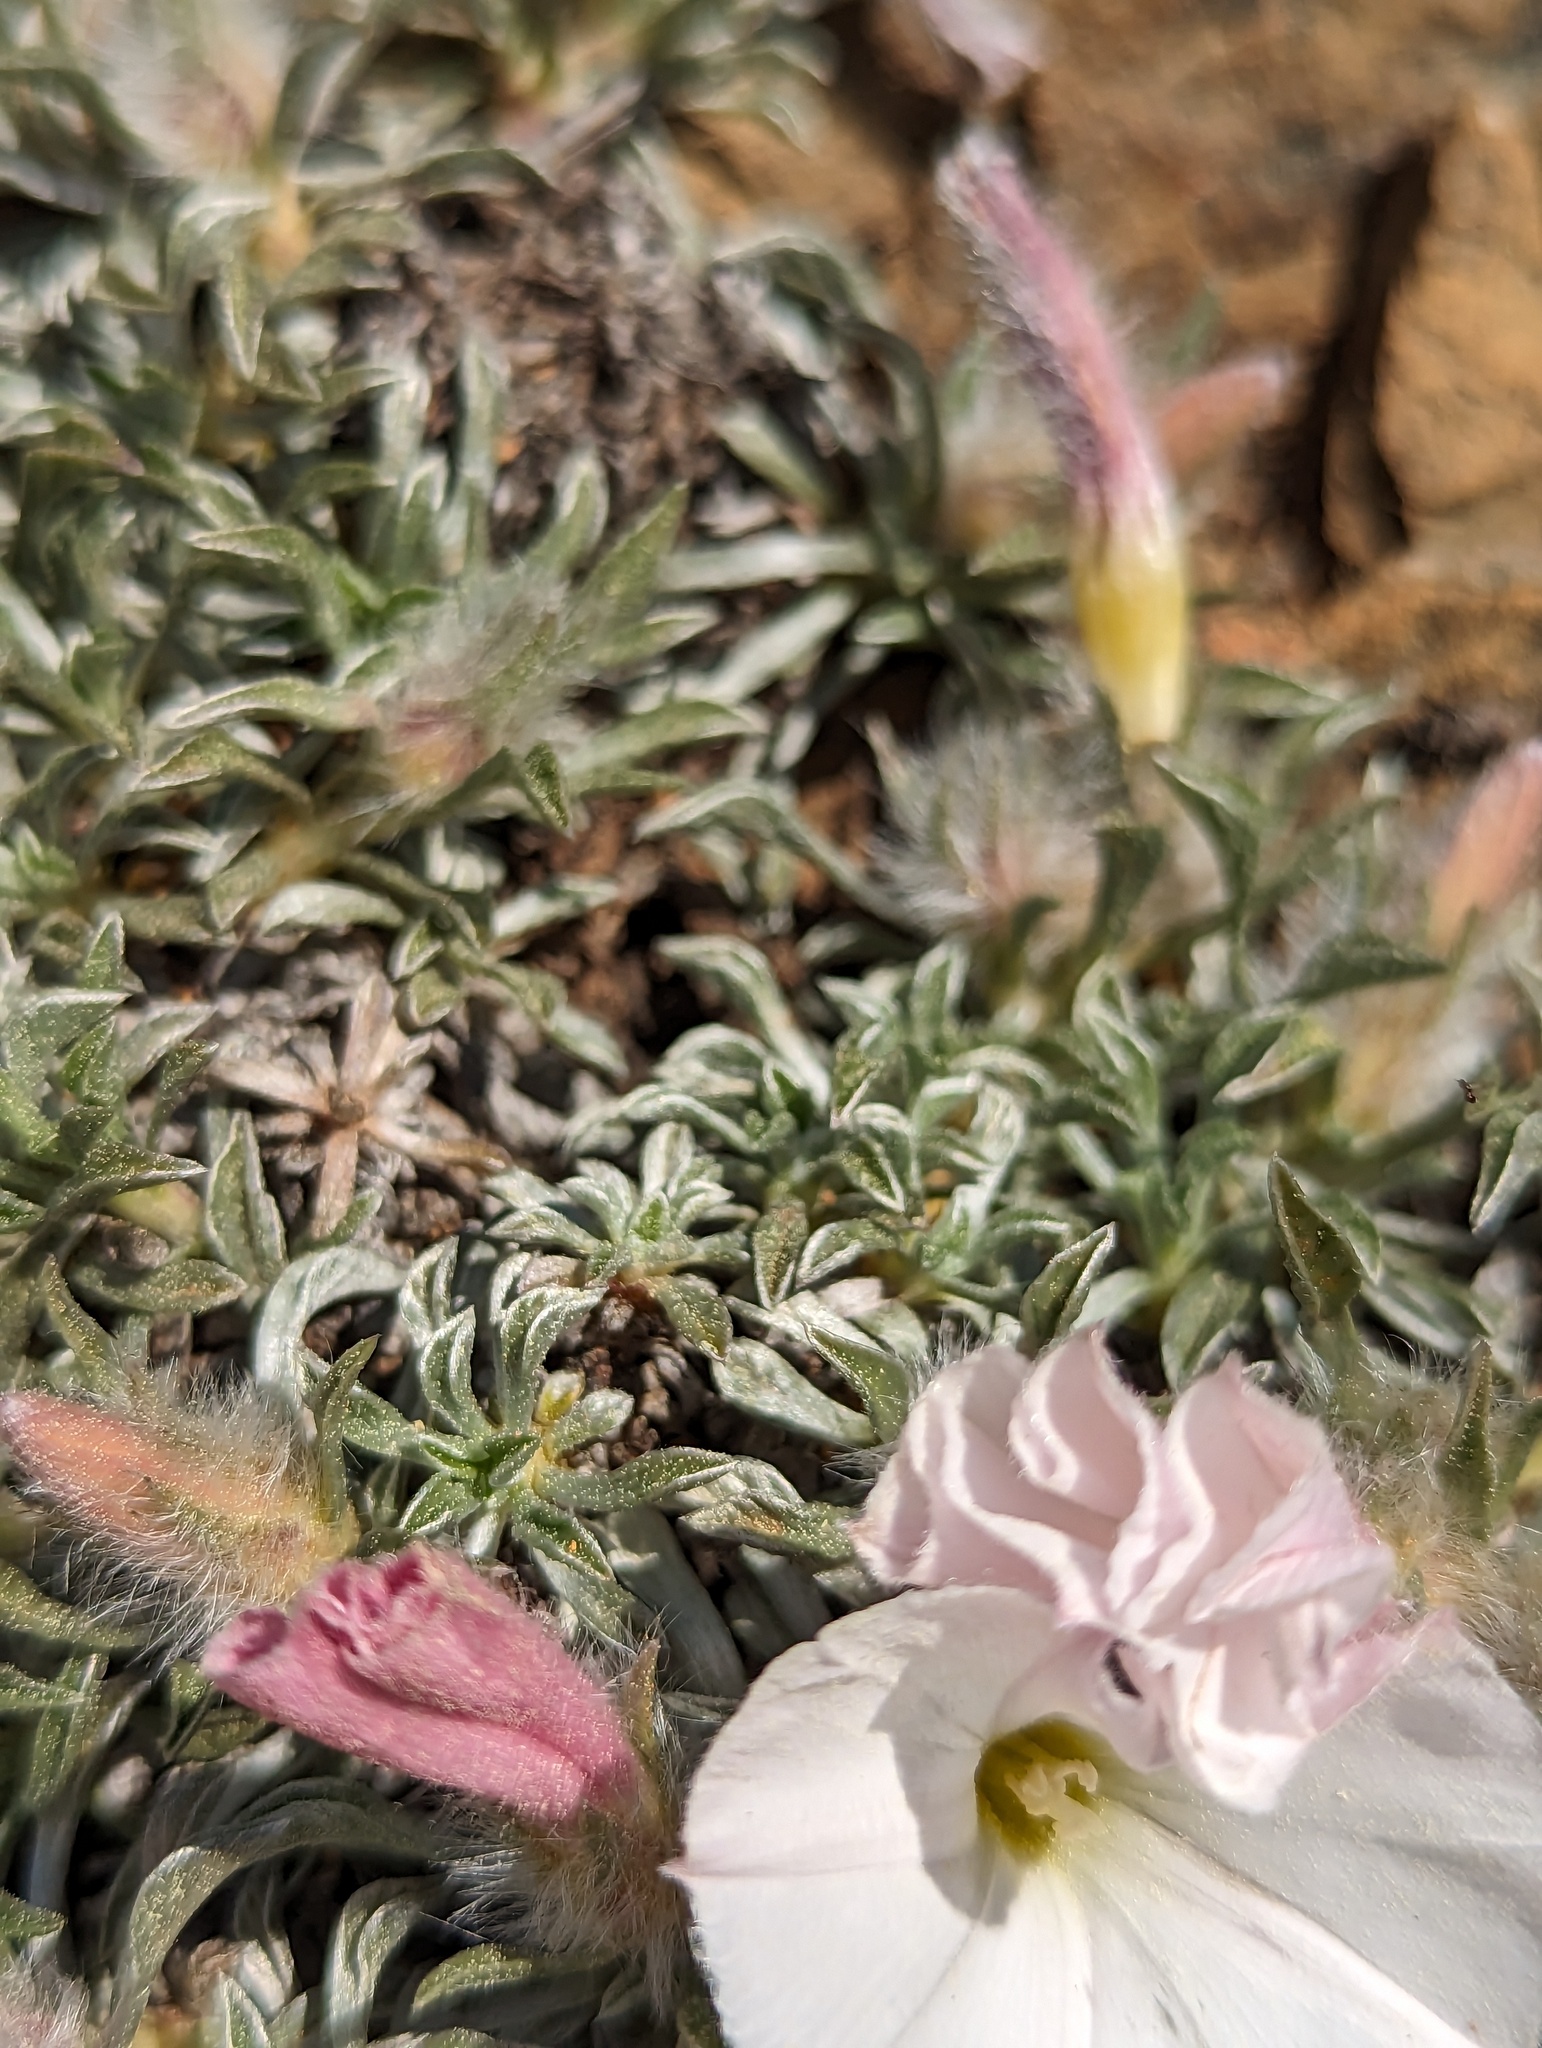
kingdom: Plantae
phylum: Tracheophyta
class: Magnoliopsida
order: Solanales
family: Convolvulaceae
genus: Convolvulus
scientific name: Convolvulus boissieri
